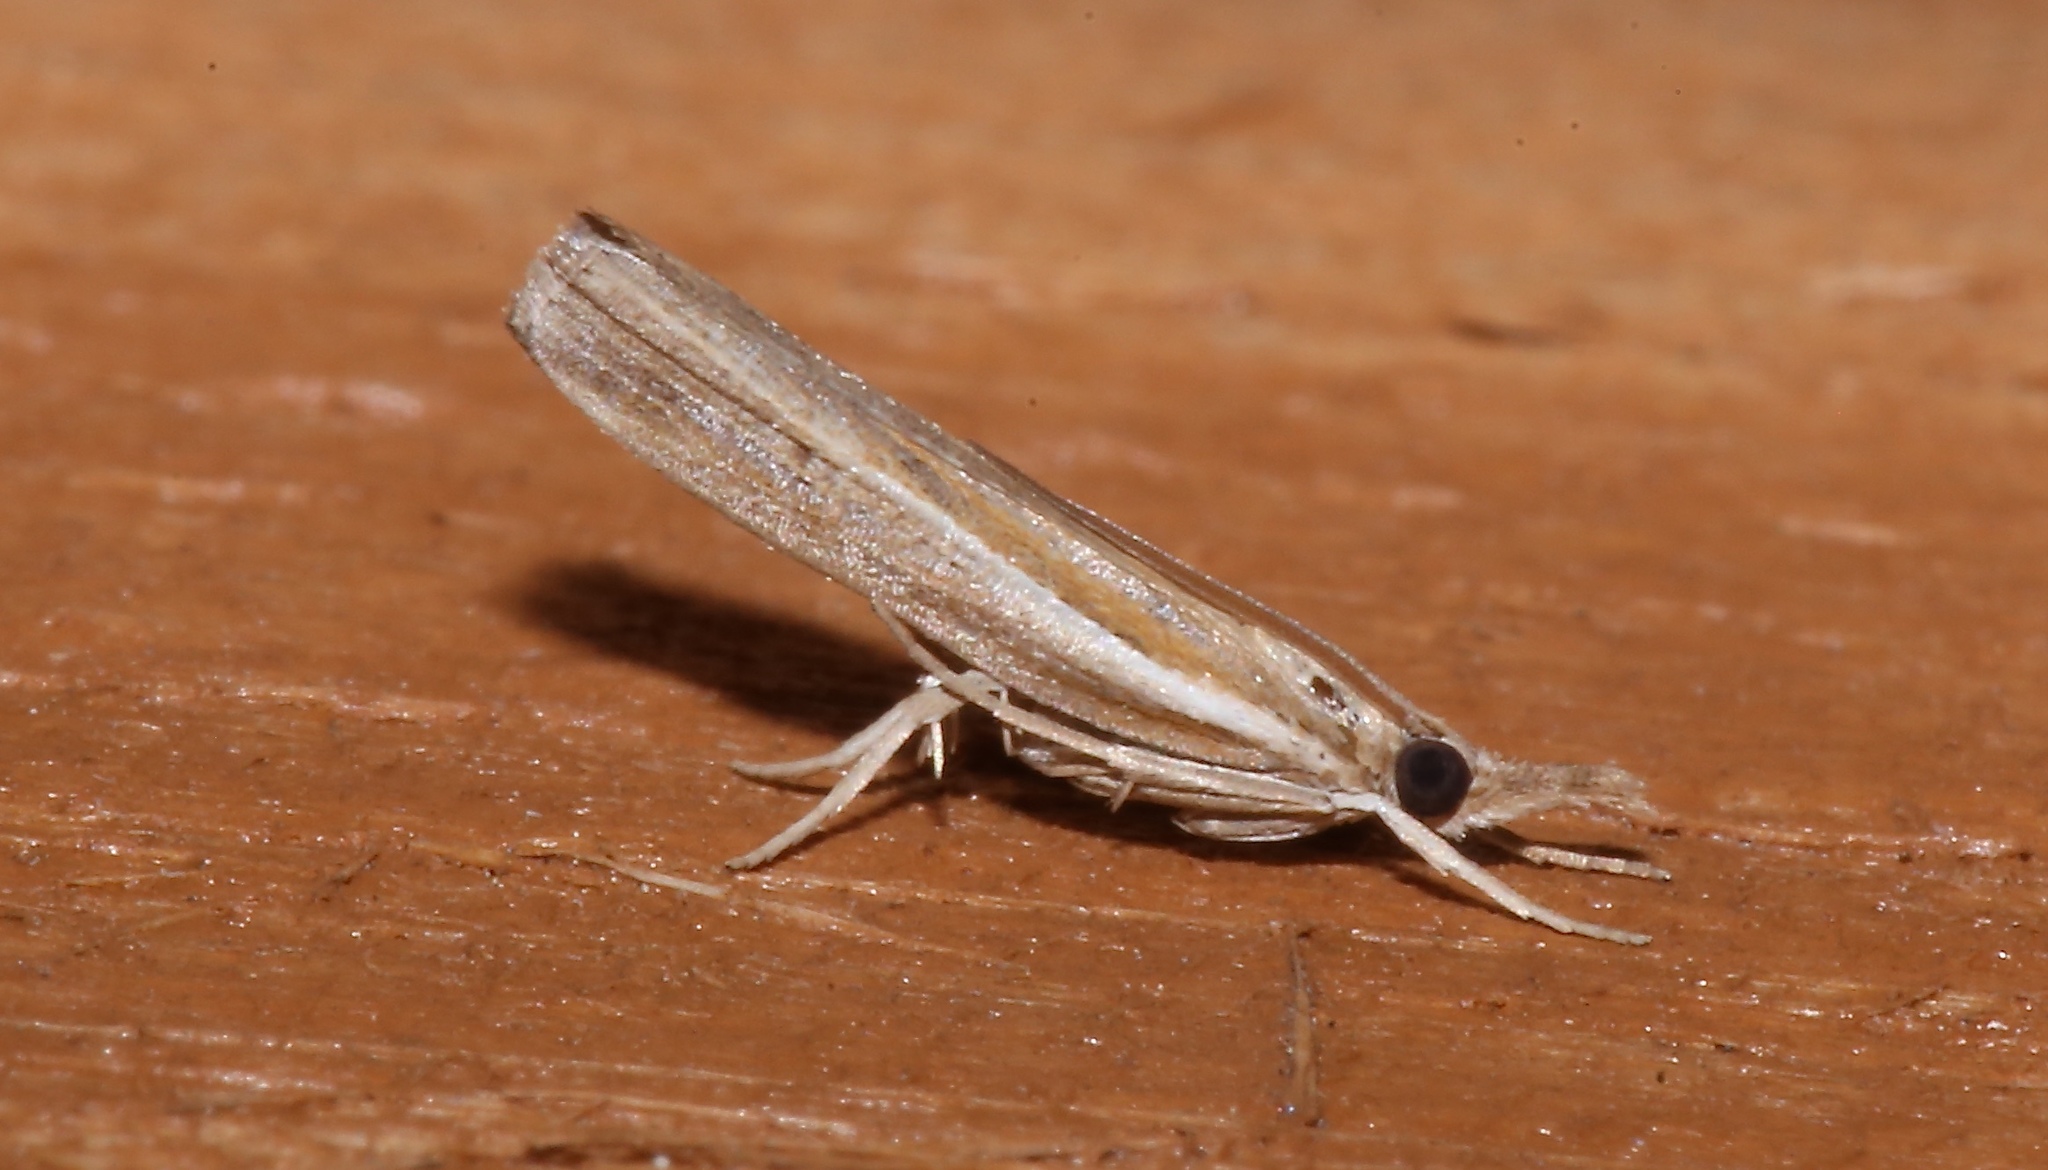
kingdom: Animalia
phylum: Arthropoda
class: Insecta
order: Lepidoptera
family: Crambidae
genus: Fissicrambus
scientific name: Fissicrambus fissiradiellus
